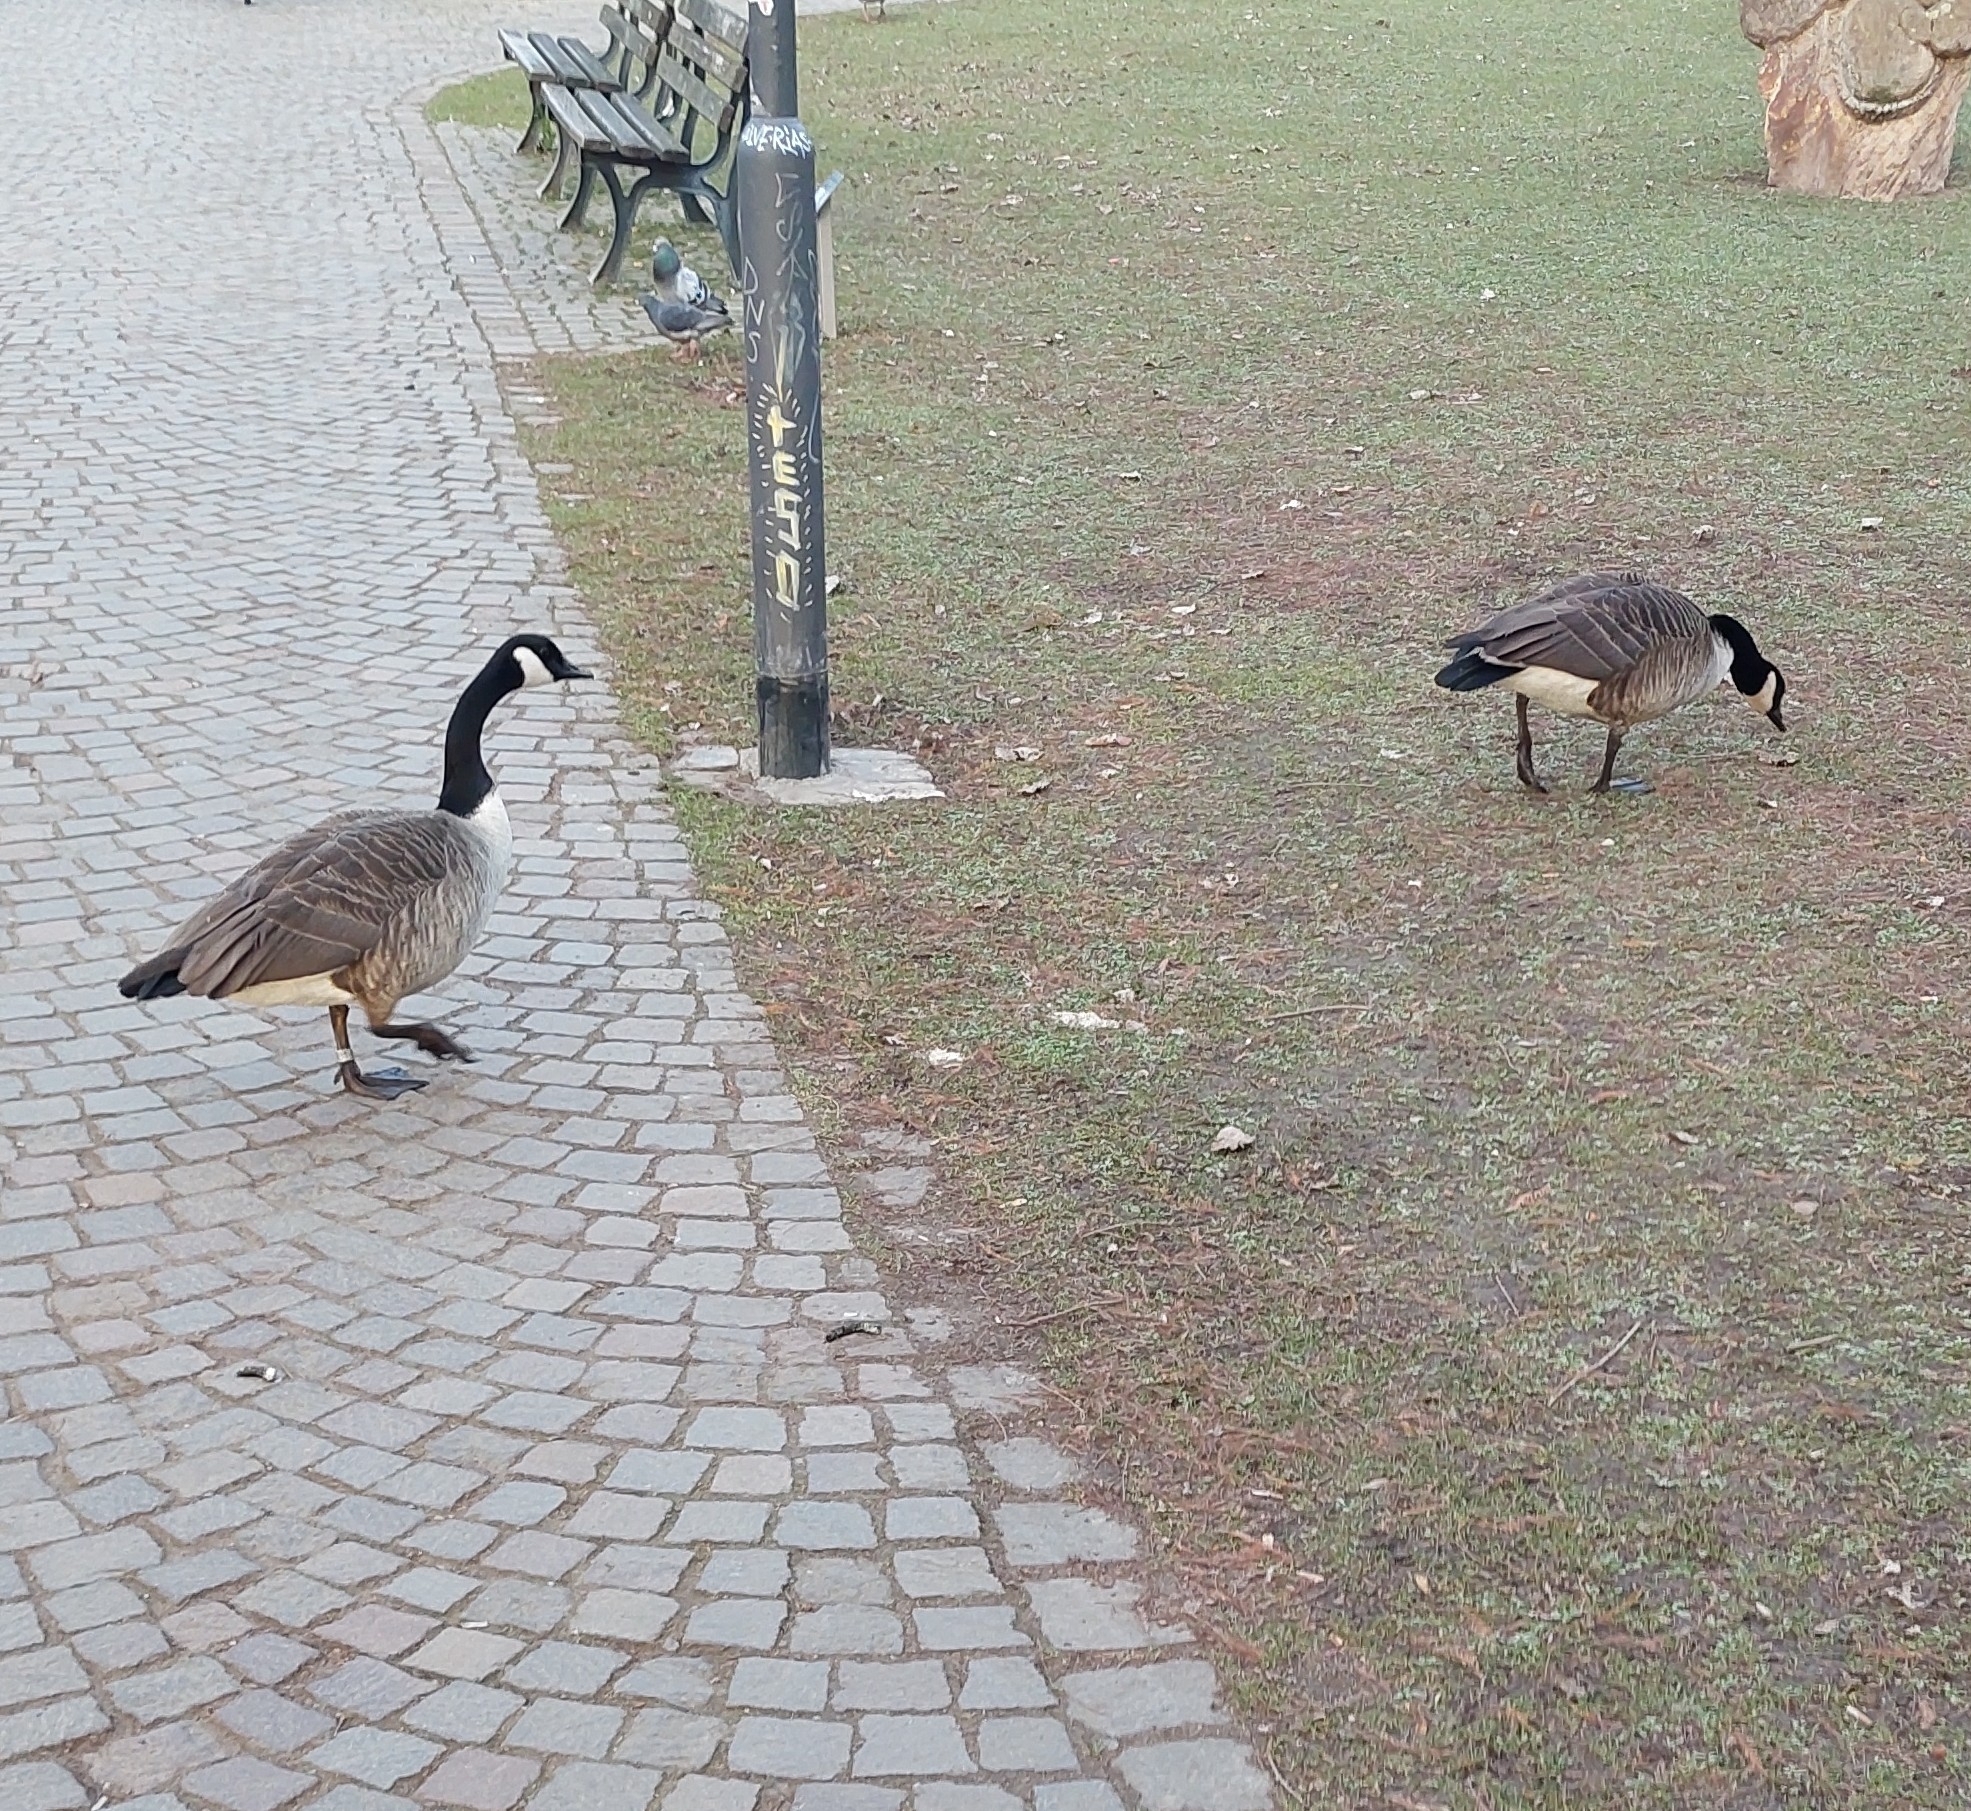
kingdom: Animalia
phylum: Chordata
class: Aves
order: Anseriformes
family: Anatidae
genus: Branta
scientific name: Branta canadensis
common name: Canada goose
